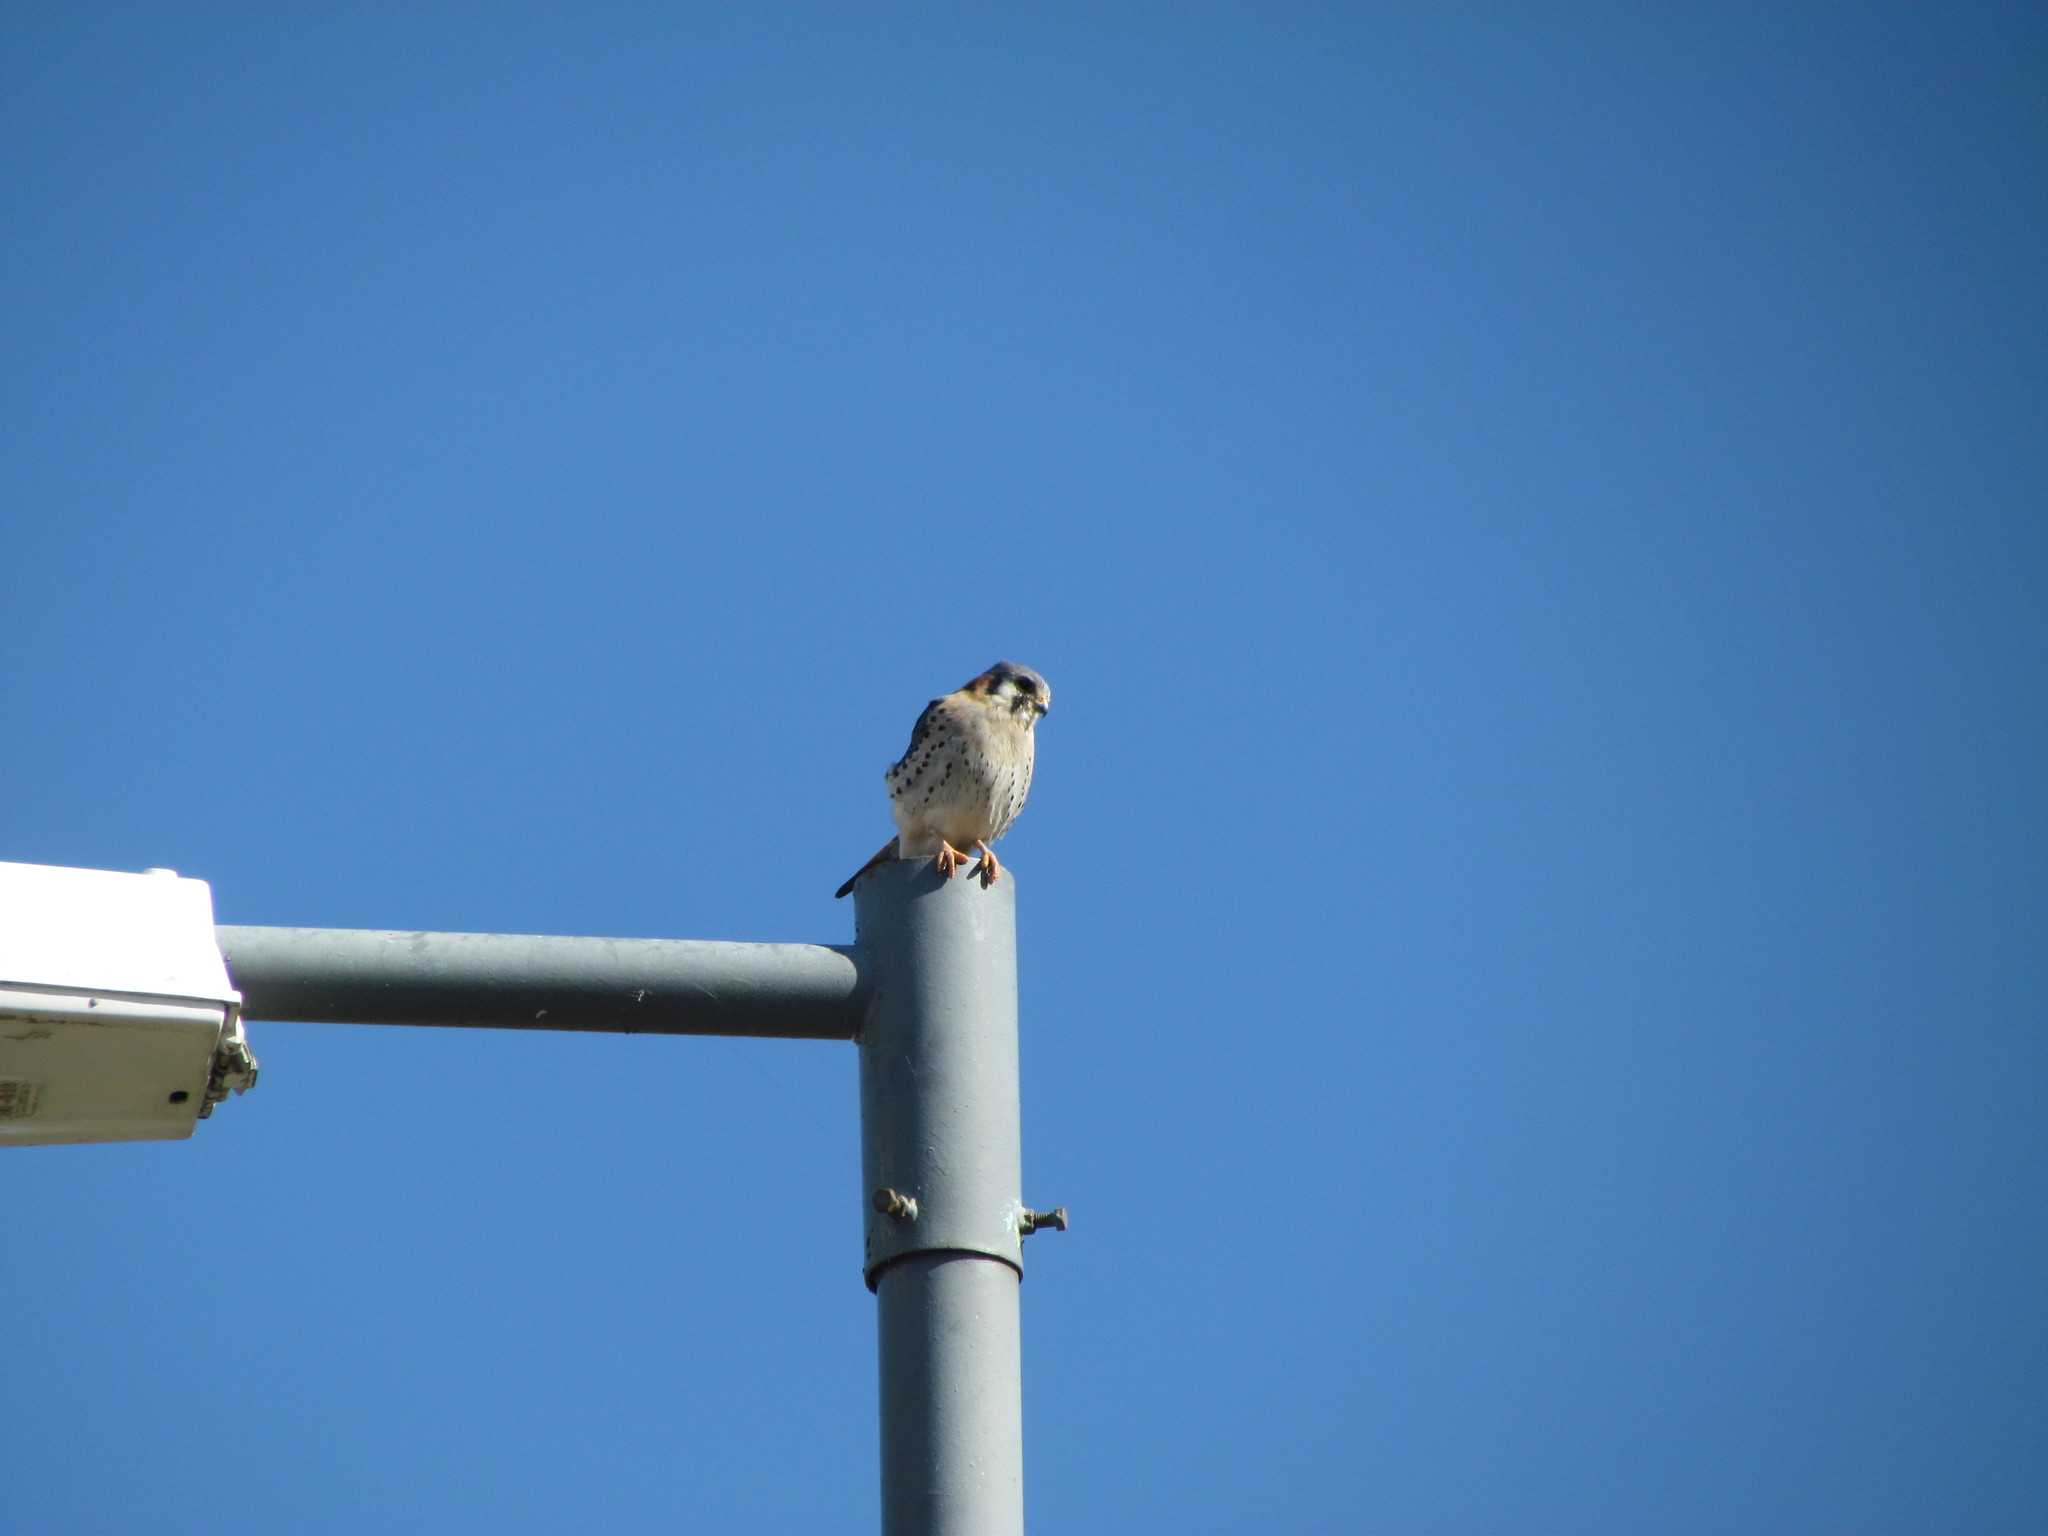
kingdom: Animalia
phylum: Chordata
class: Aves
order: Falconiformes
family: Falconidae
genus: Falco
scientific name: Falco sparverius
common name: American kestrel
